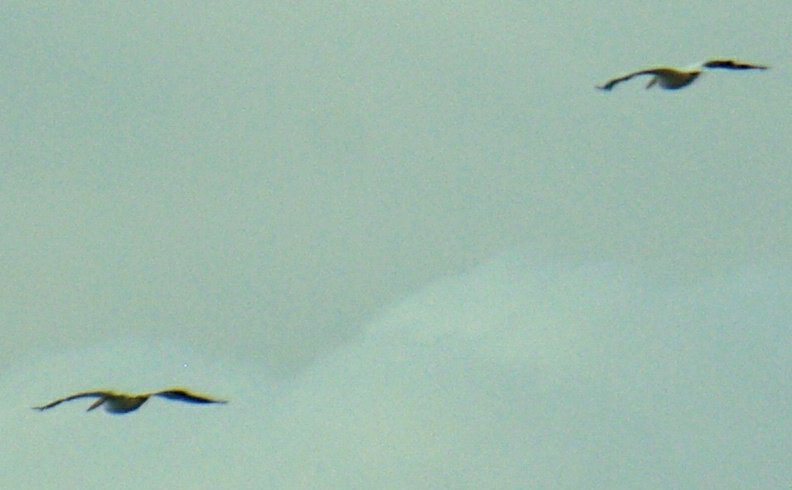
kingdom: Animalia
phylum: Chordata
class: Aves
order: Pelecaniformes
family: Pelecanidae
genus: Pelecanus
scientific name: Pelecanus erythrorhynchos
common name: American white pelican
